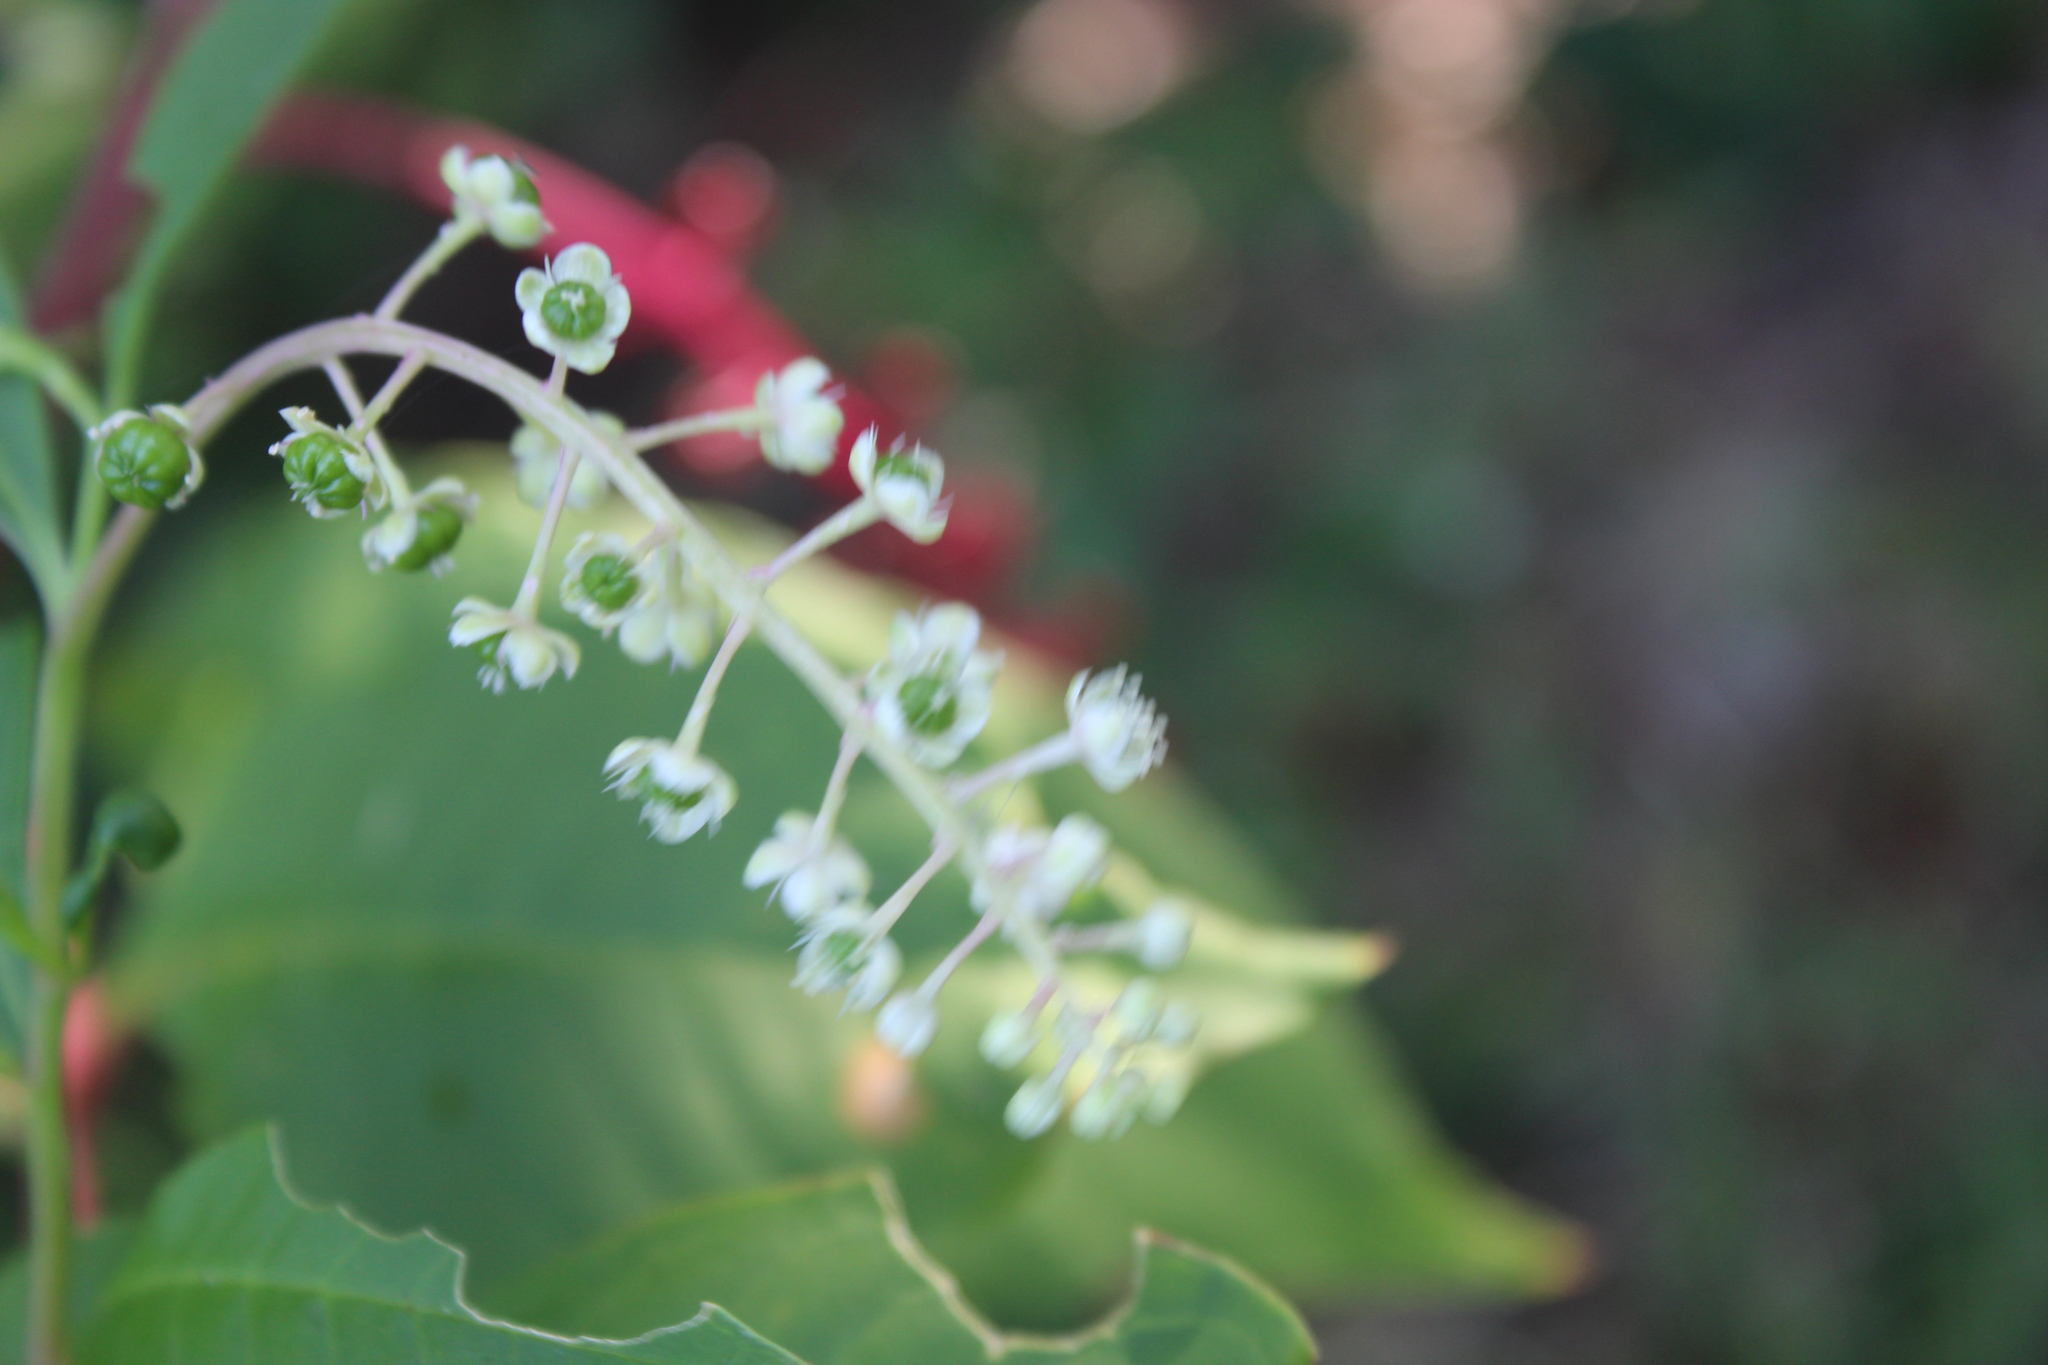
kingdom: Plantae
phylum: Tracheophyta
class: Magnoliopsida
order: Caryophyllales
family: Phytolaccaceae
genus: Phytolacca
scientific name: Phytolacca americana
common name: American pokeweed
